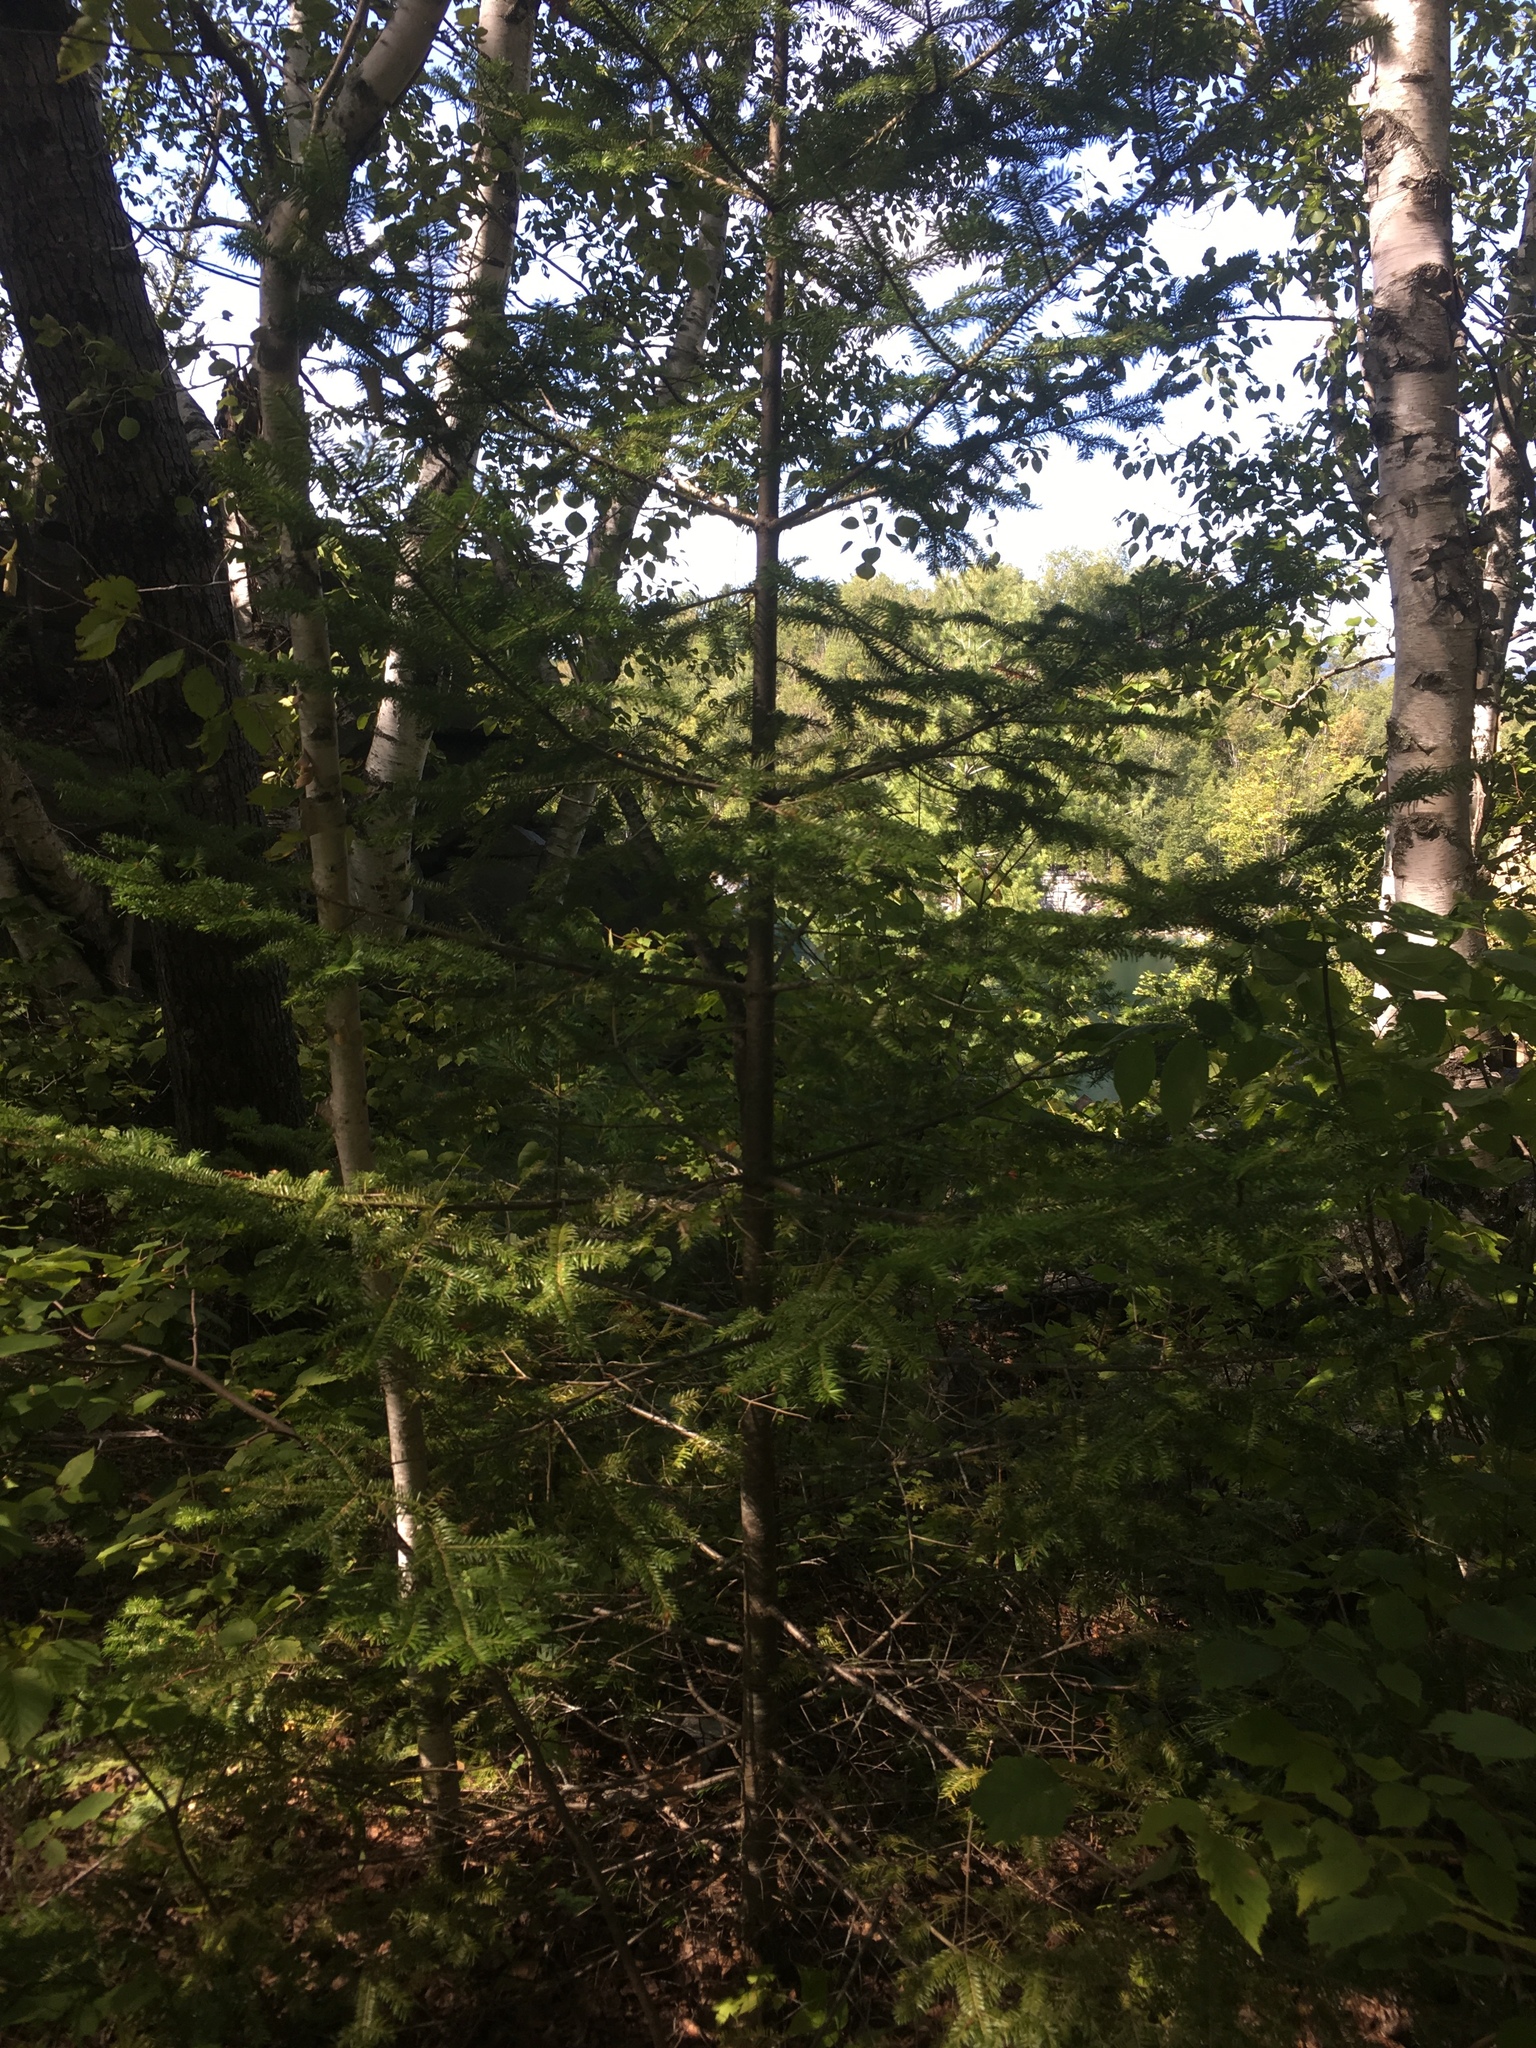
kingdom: Plantae
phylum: Tracheophyta
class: Pinopsida
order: Pinales
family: Pinaceae
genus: Abies
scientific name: Abies balsamea
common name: Balsam fir
